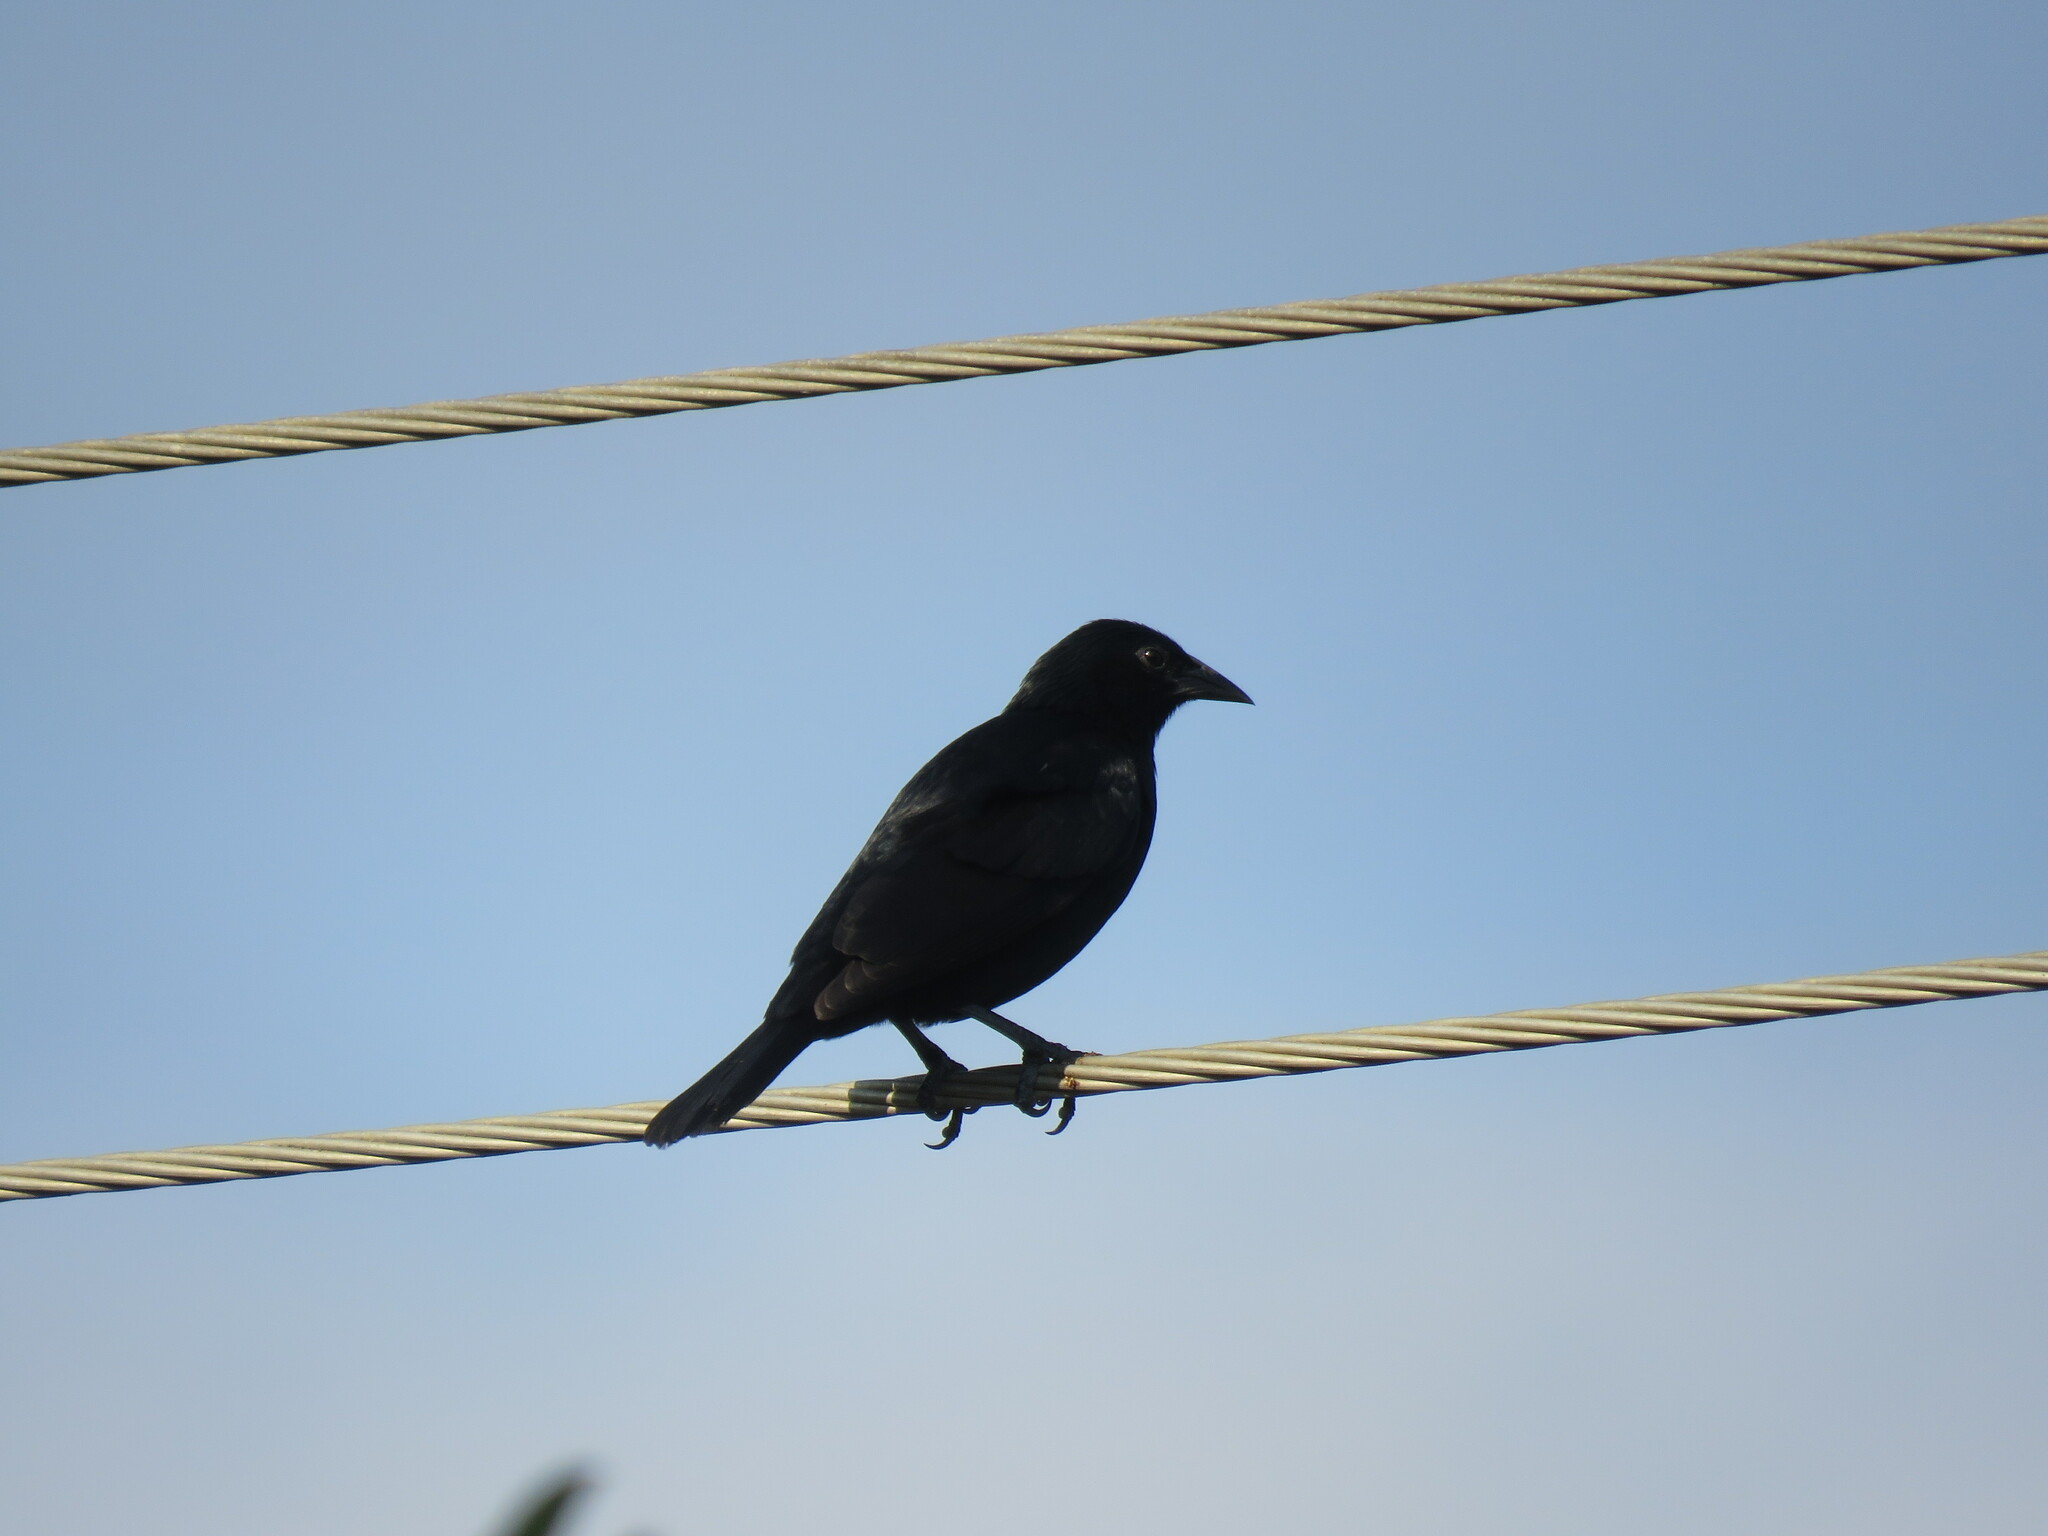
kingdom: Animalia
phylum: Chordata
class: Aves
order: Passeriformes
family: Icteridae
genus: Gnorimopsar
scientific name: Gnorimopsar chopi
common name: Chopi blackbird
